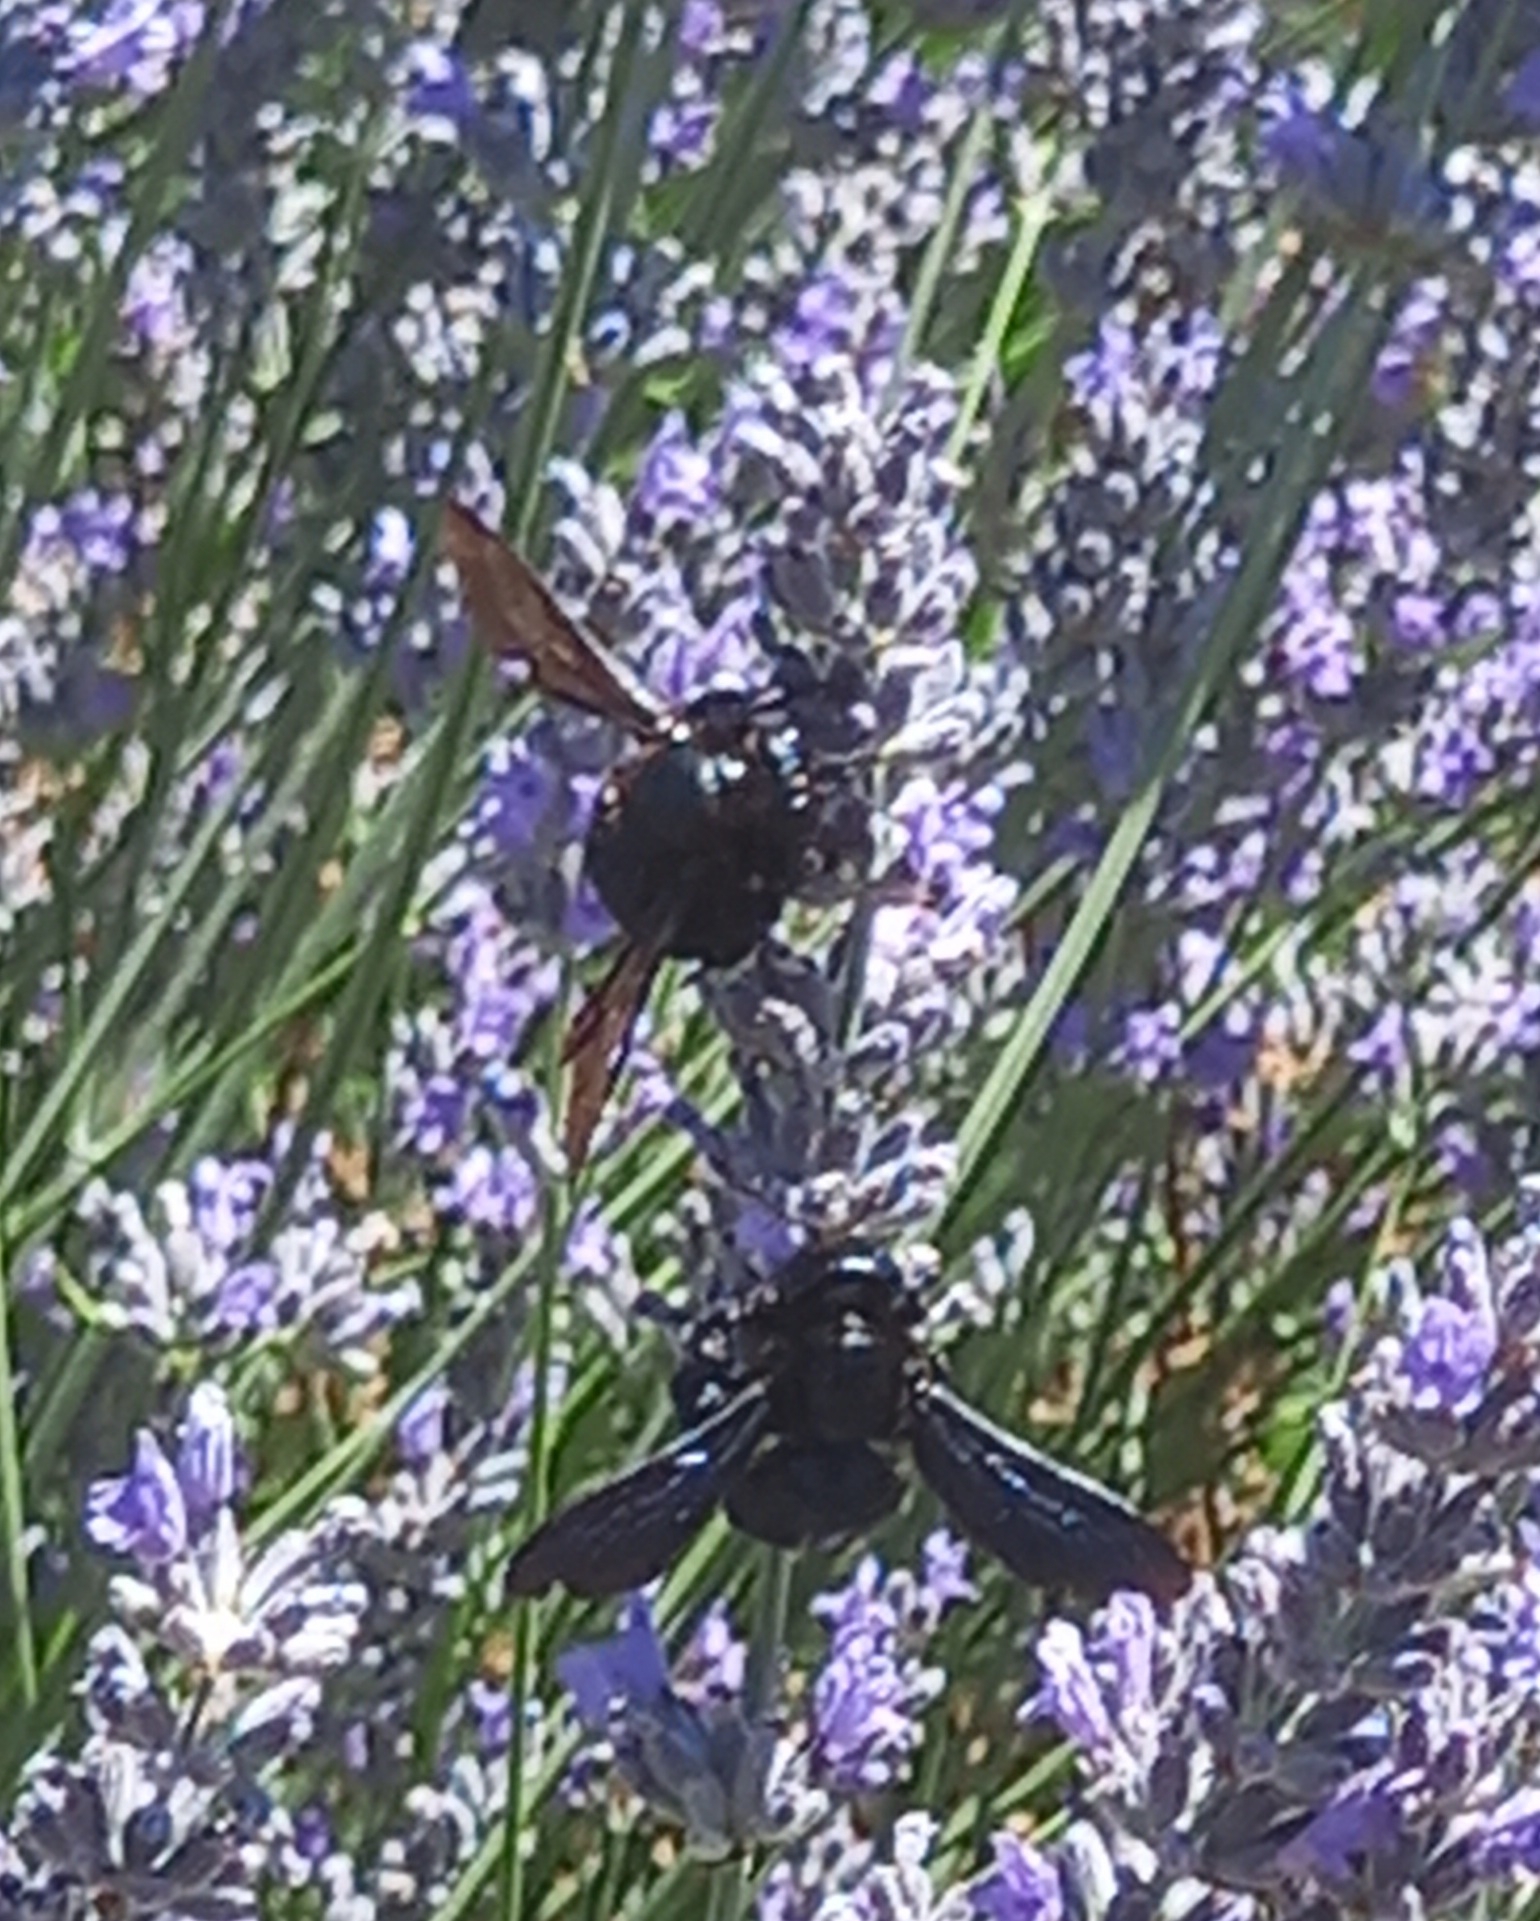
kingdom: Animalia
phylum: Arthropoda
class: Insecta
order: Hymenoptera
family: Apidae
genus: Xylocopa
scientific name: Xylocopa violacea
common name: Violet carpenter bee
